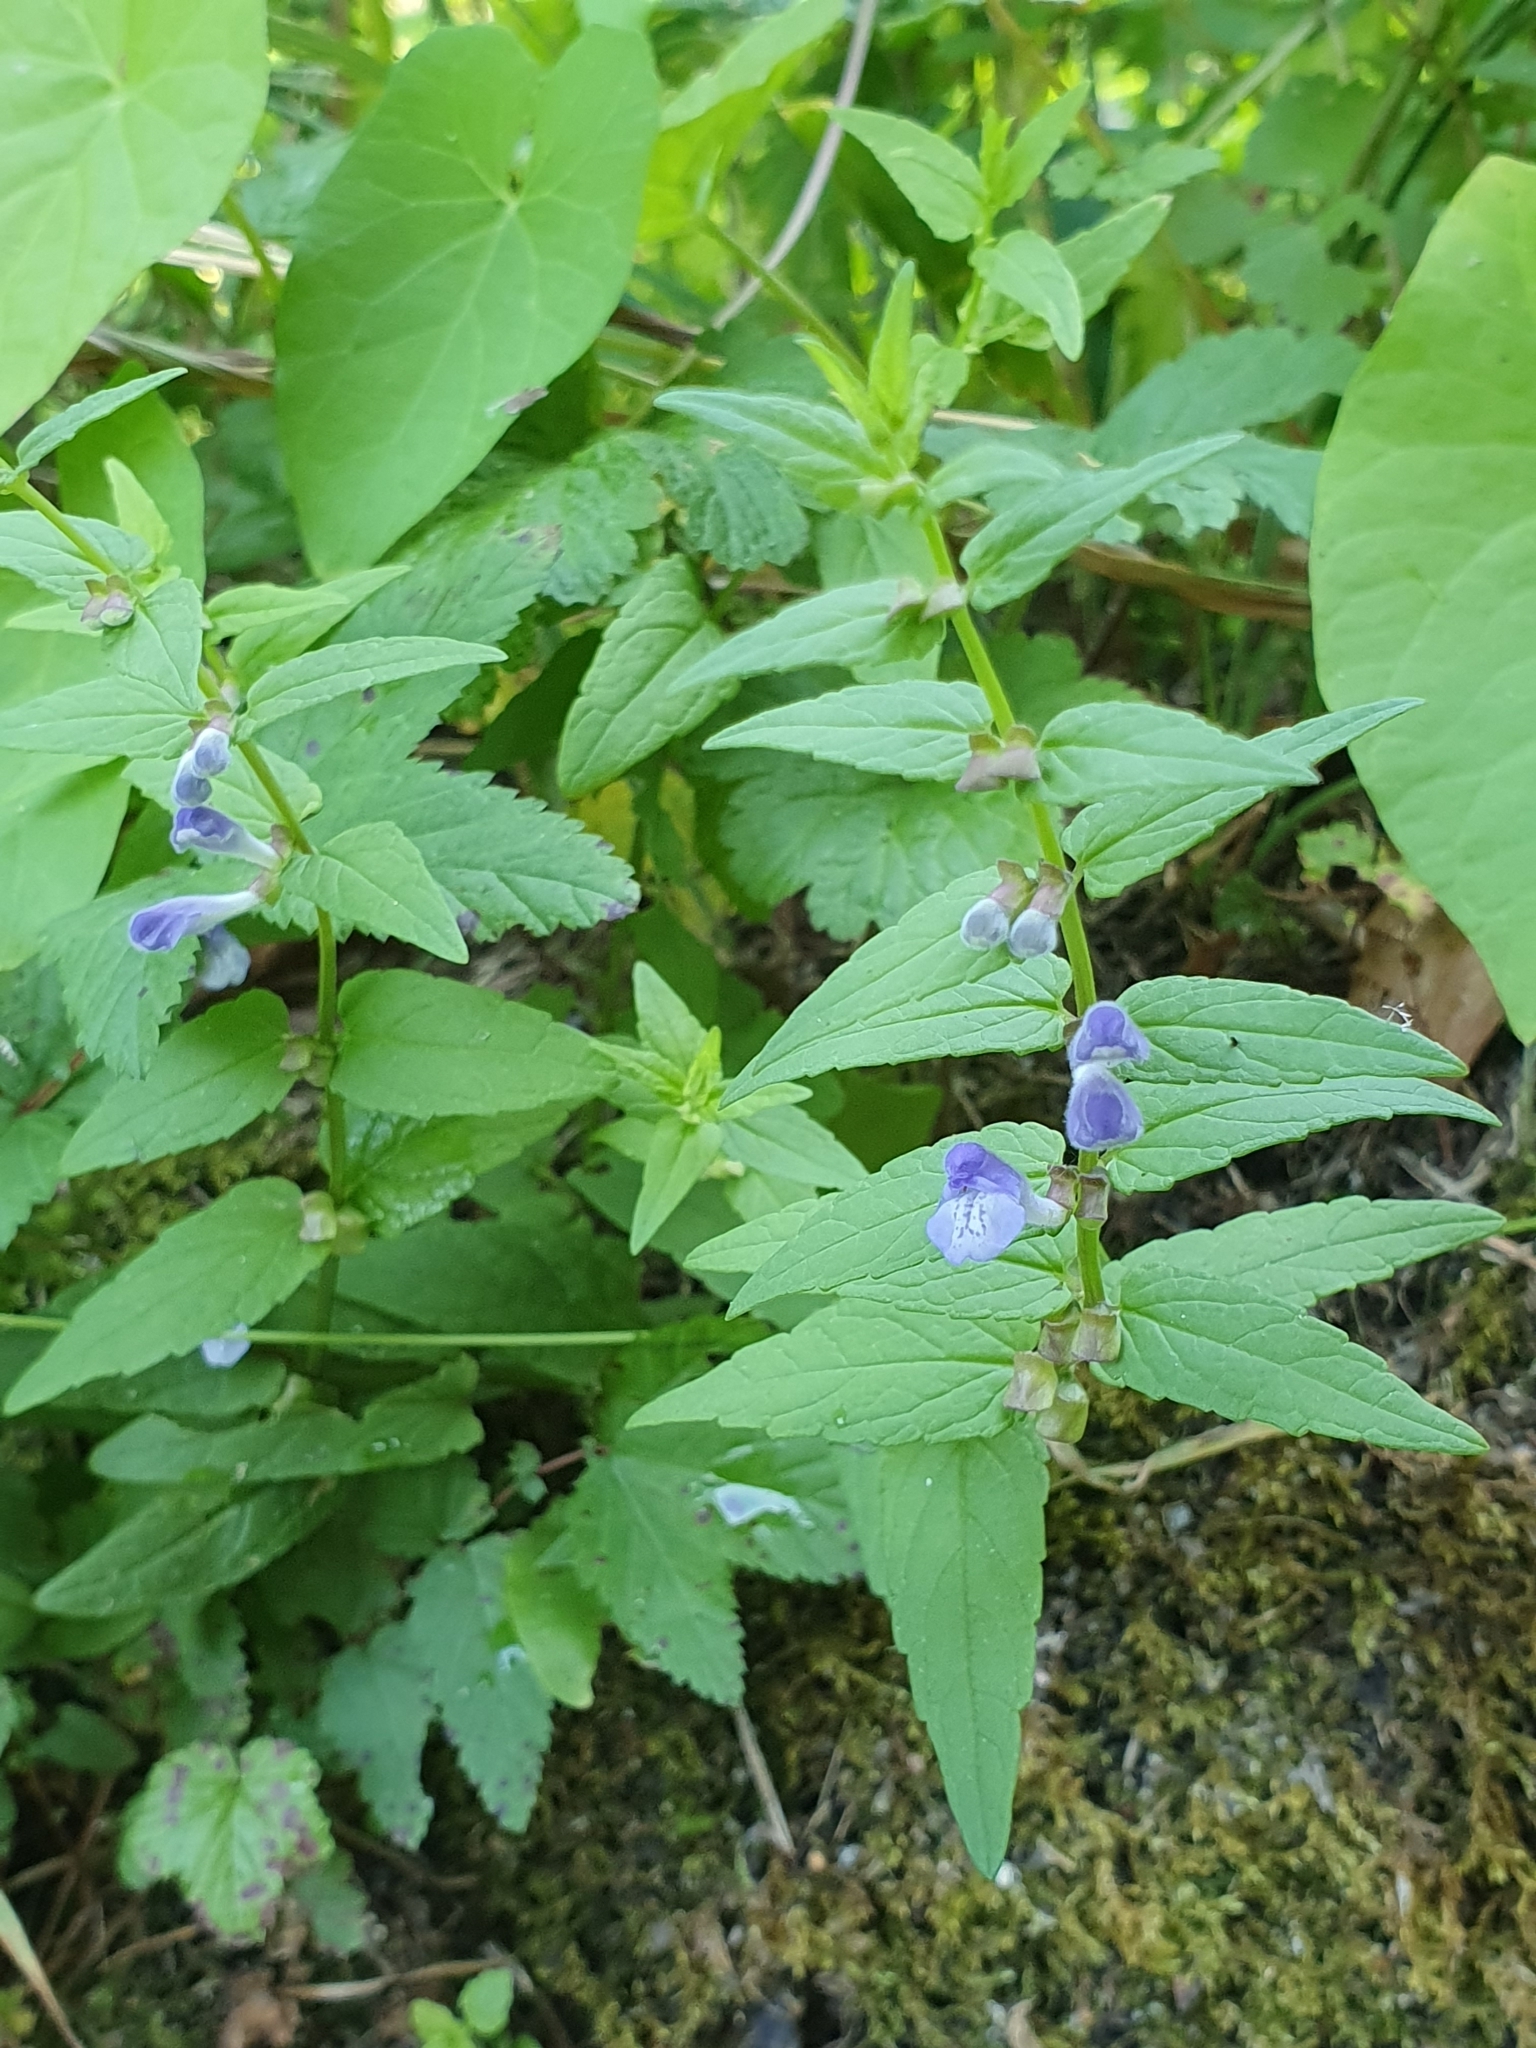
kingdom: Plantae
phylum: Tracheophyta
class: Magnoliopsida
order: Lamiales
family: Lamiaceae
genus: Scutellaria
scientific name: Scutellaria galericulata
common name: Skullcap
